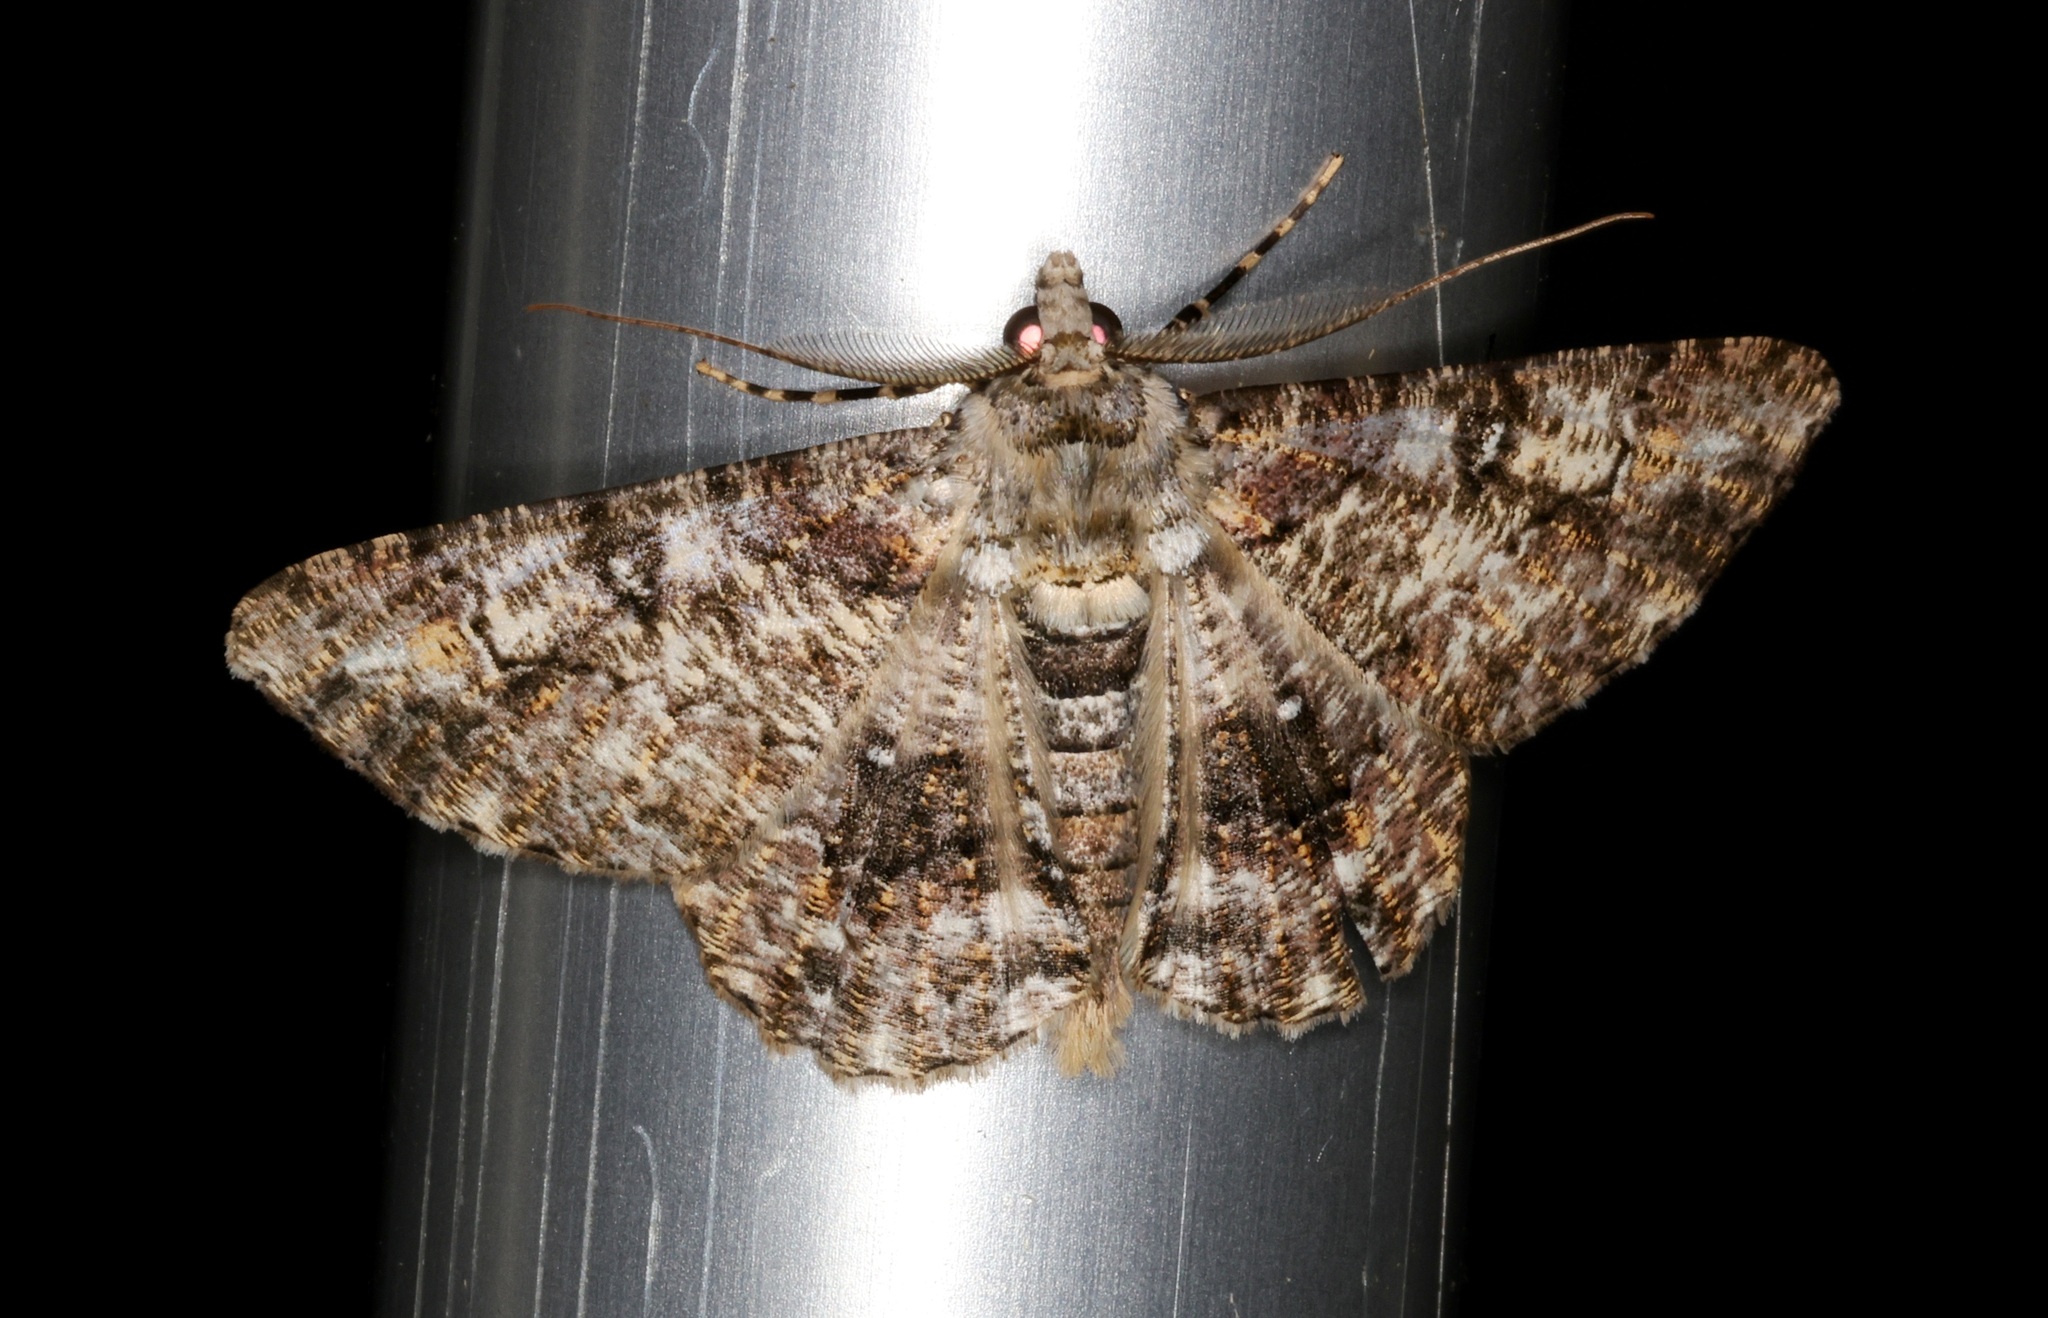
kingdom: Animalia
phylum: Arthropoda
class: Insecta
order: Lepidoptera
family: Geometridae
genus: Cleora
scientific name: Cleora alienaria
